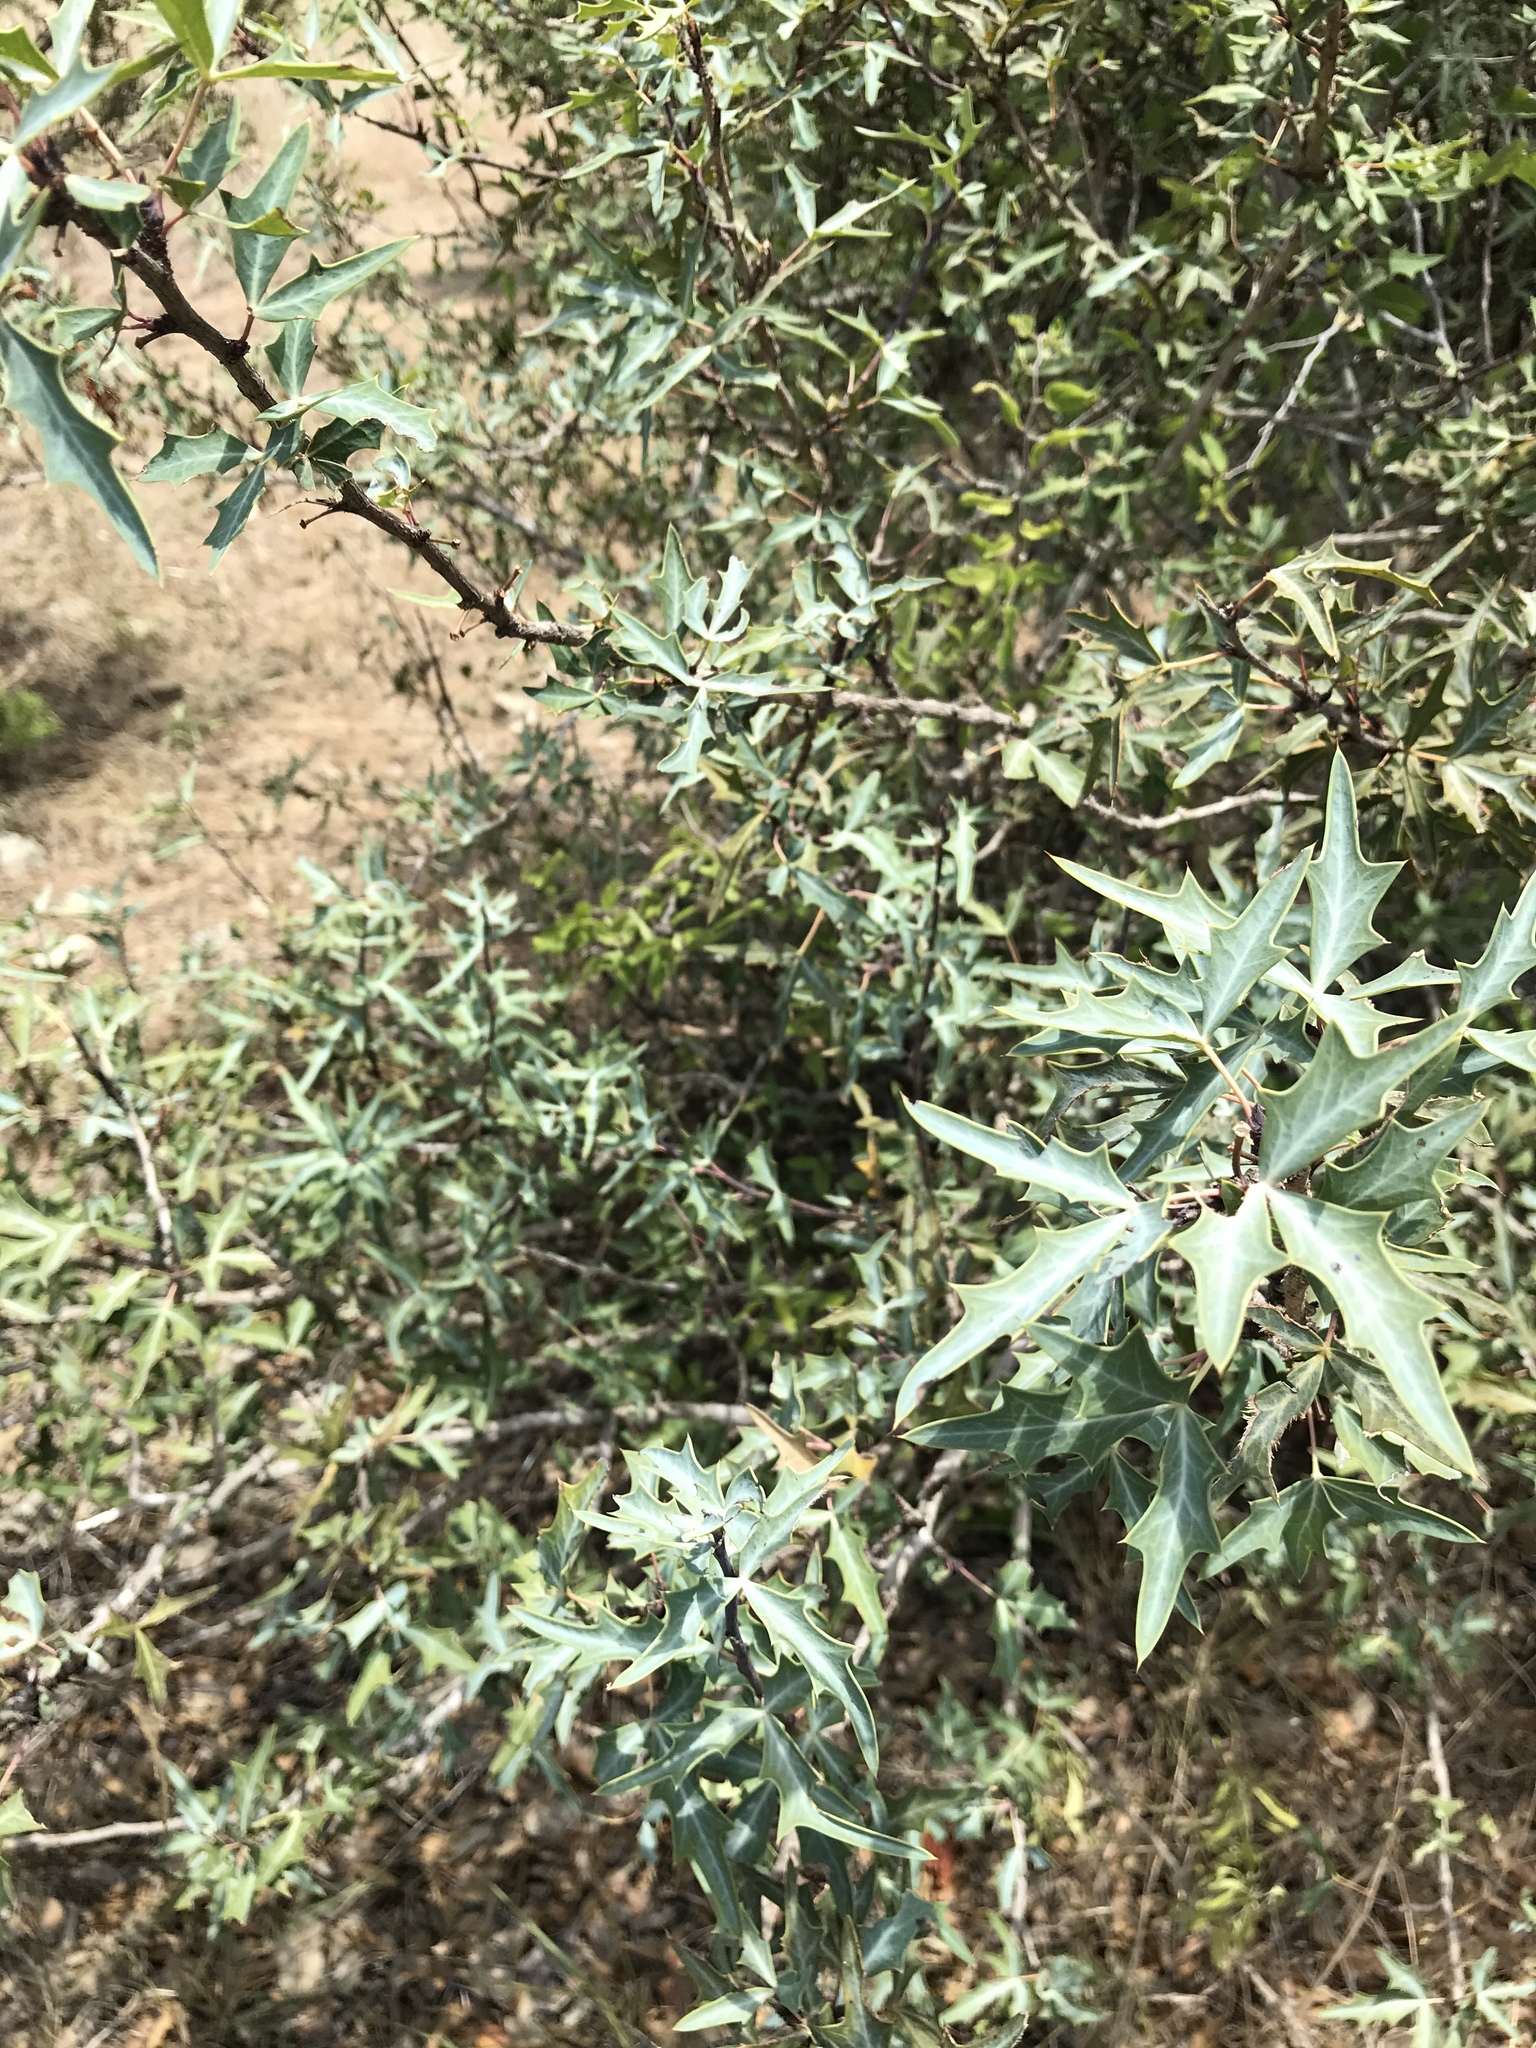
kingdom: Plantae
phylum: Tracheophyta
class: Magnoliopsida
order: Ranunculales
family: Berberidaceae
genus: Alloberberis
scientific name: Alloberberis trifoliolata
